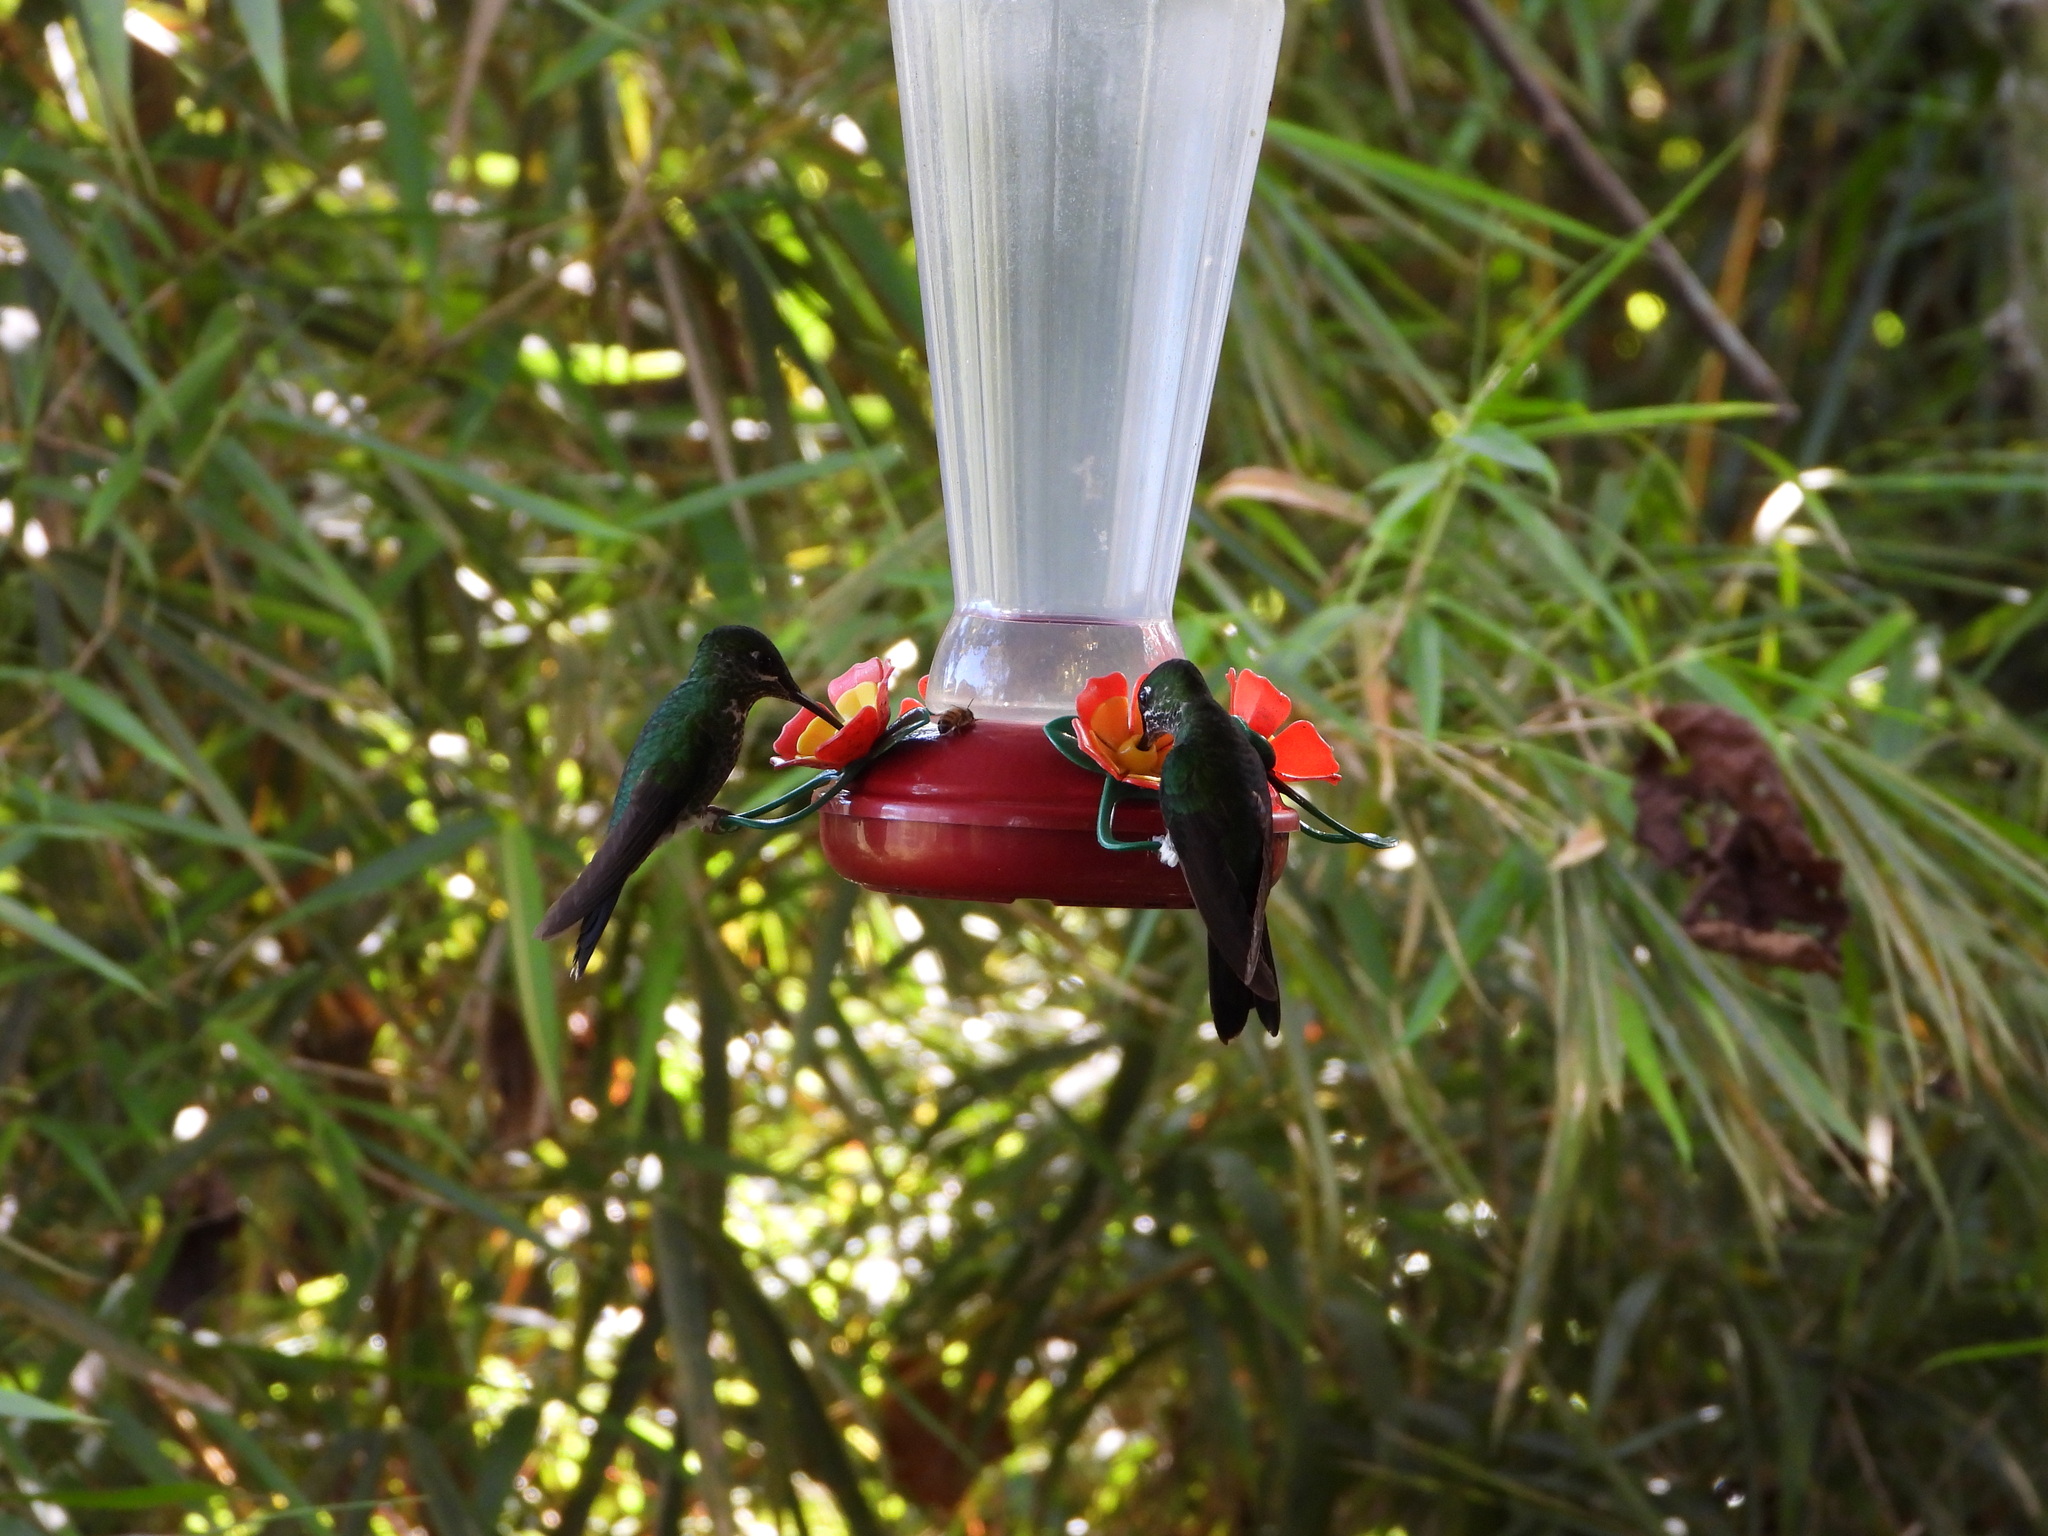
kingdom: Animalia
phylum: Chordata
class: Aves
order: Apodiformes
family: Trochilidae
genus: Heliodoxa
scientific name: Heliodoxa jacula
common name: Green-crowned brilliant
